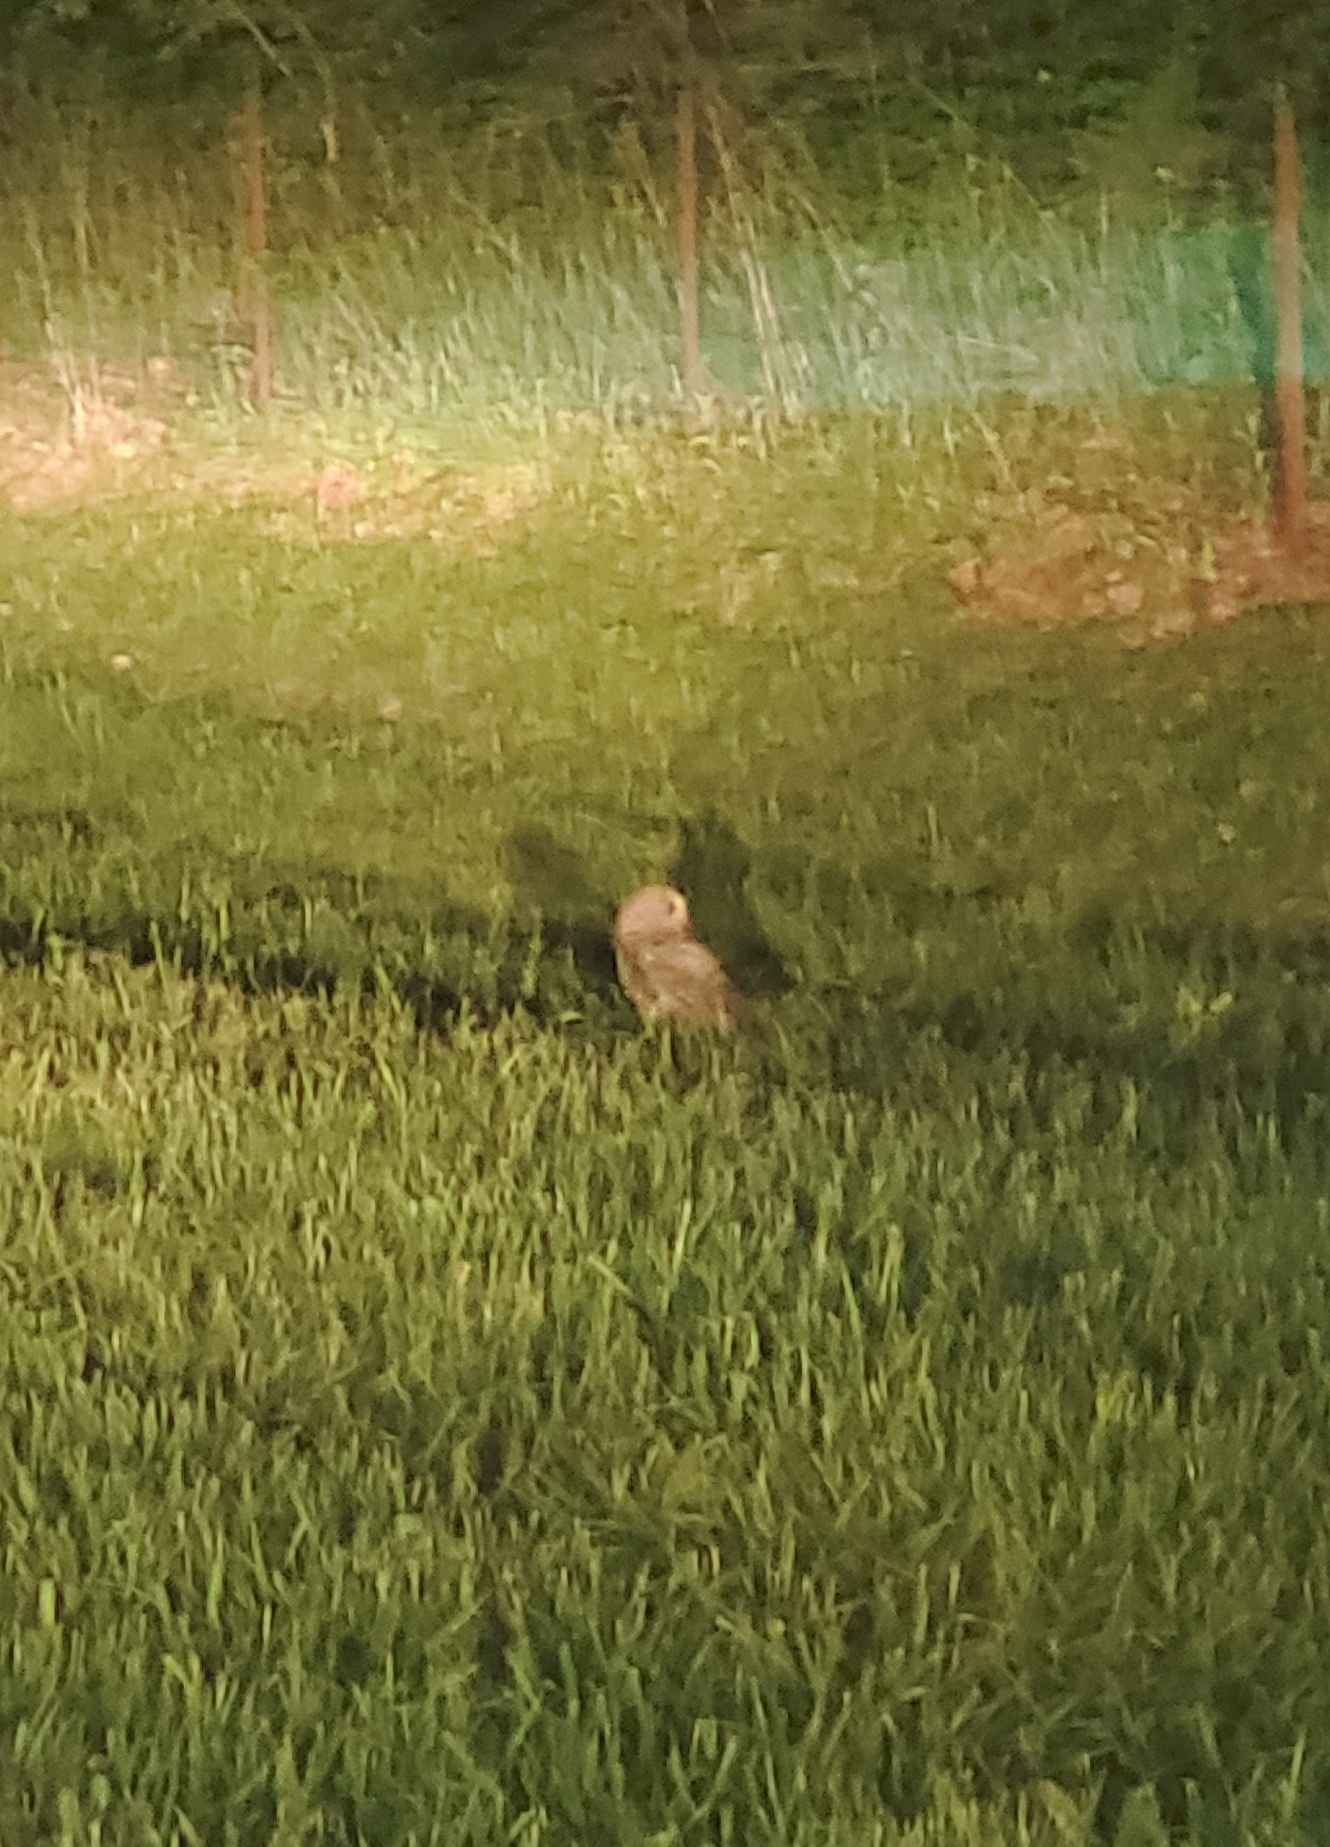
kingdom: Animalia
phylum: Chordata
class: Aves
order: Strigiformes
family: Strigidae
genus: Strix
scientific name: Strix varia
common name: Barred owl
